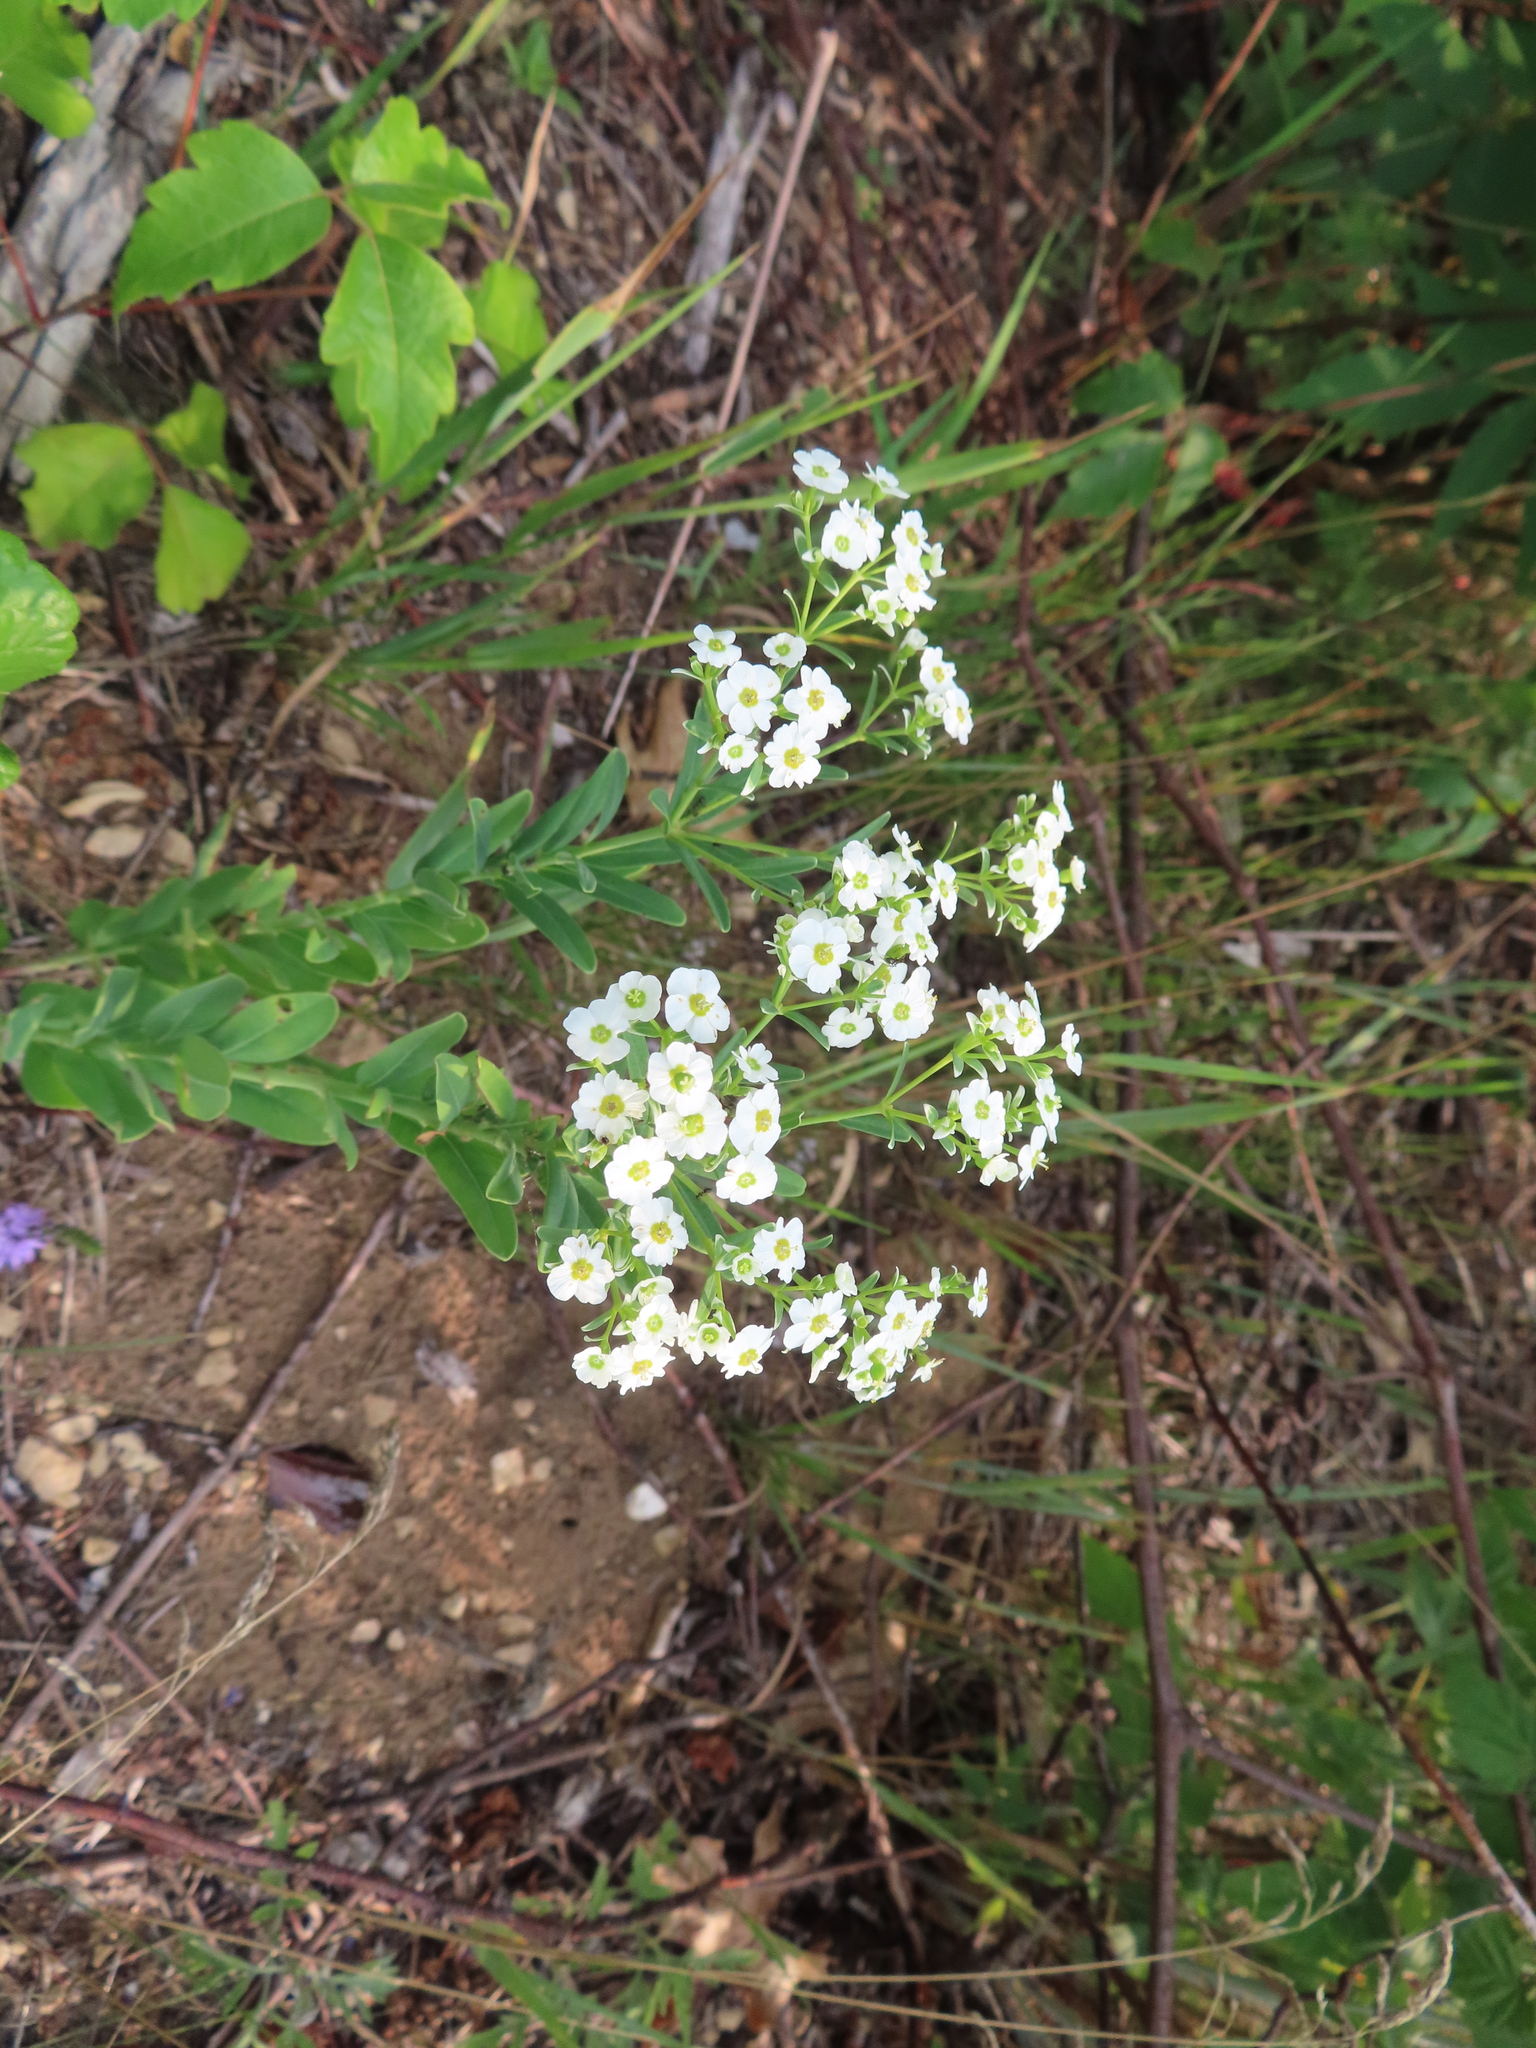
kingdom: Plantae
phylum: Tracheophyta
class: Magnoliopsida
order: Malpighiales
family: Euphorbiaceae
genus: Euphorbia
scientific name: Euphorbia corollata
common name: Flowering spurge
